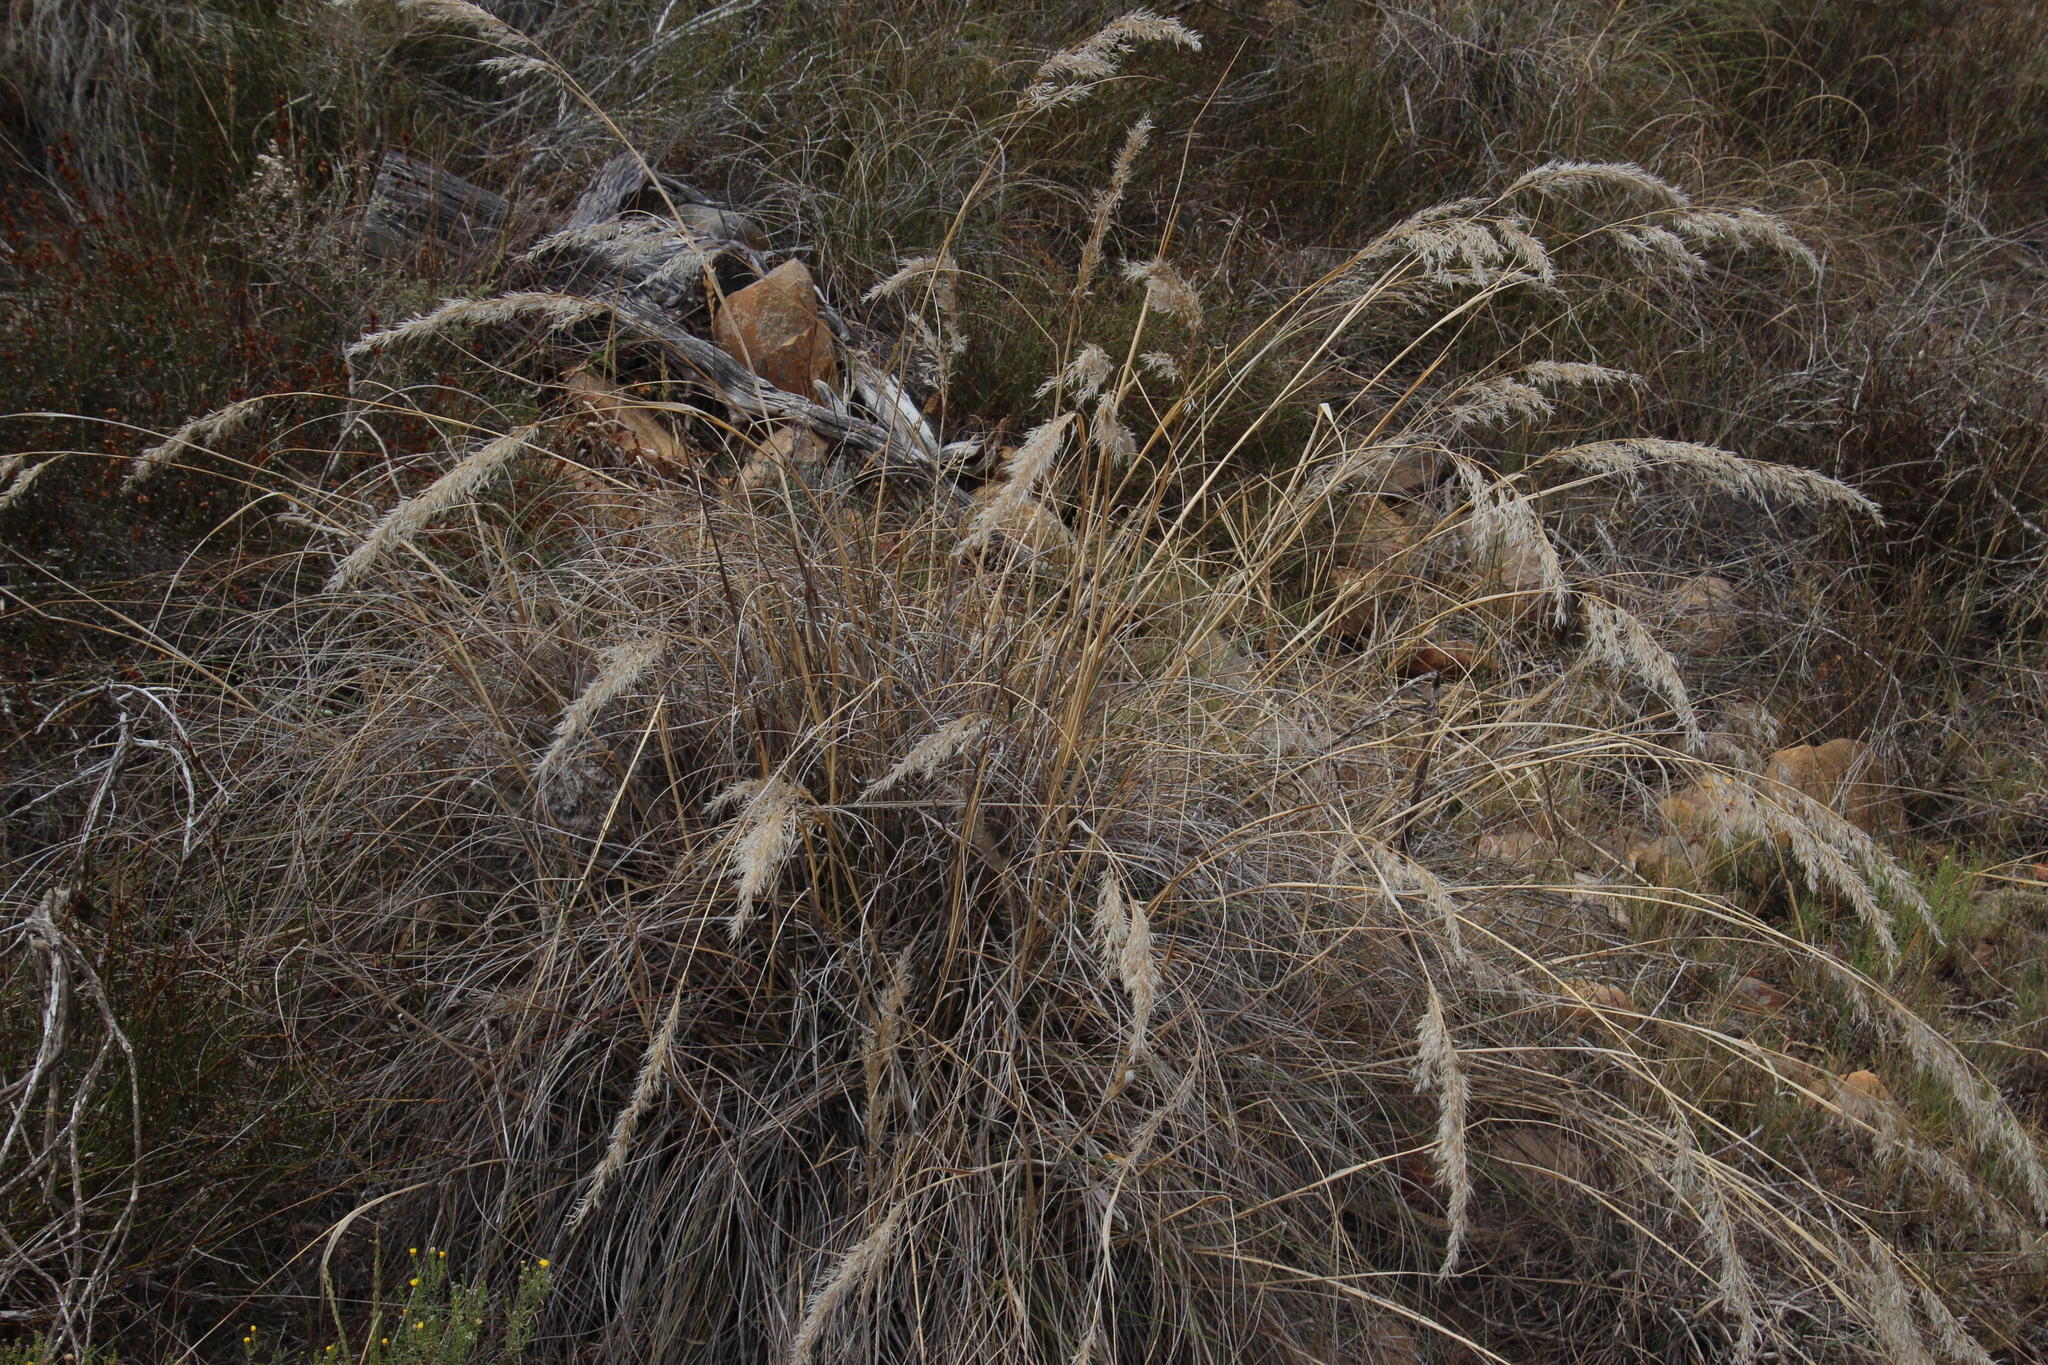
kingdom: Plantae
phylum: Tracheophyta
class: Liliopsida
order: Poales
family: Poaceae
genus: Pentameris
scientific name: Pentameris eriostoma
